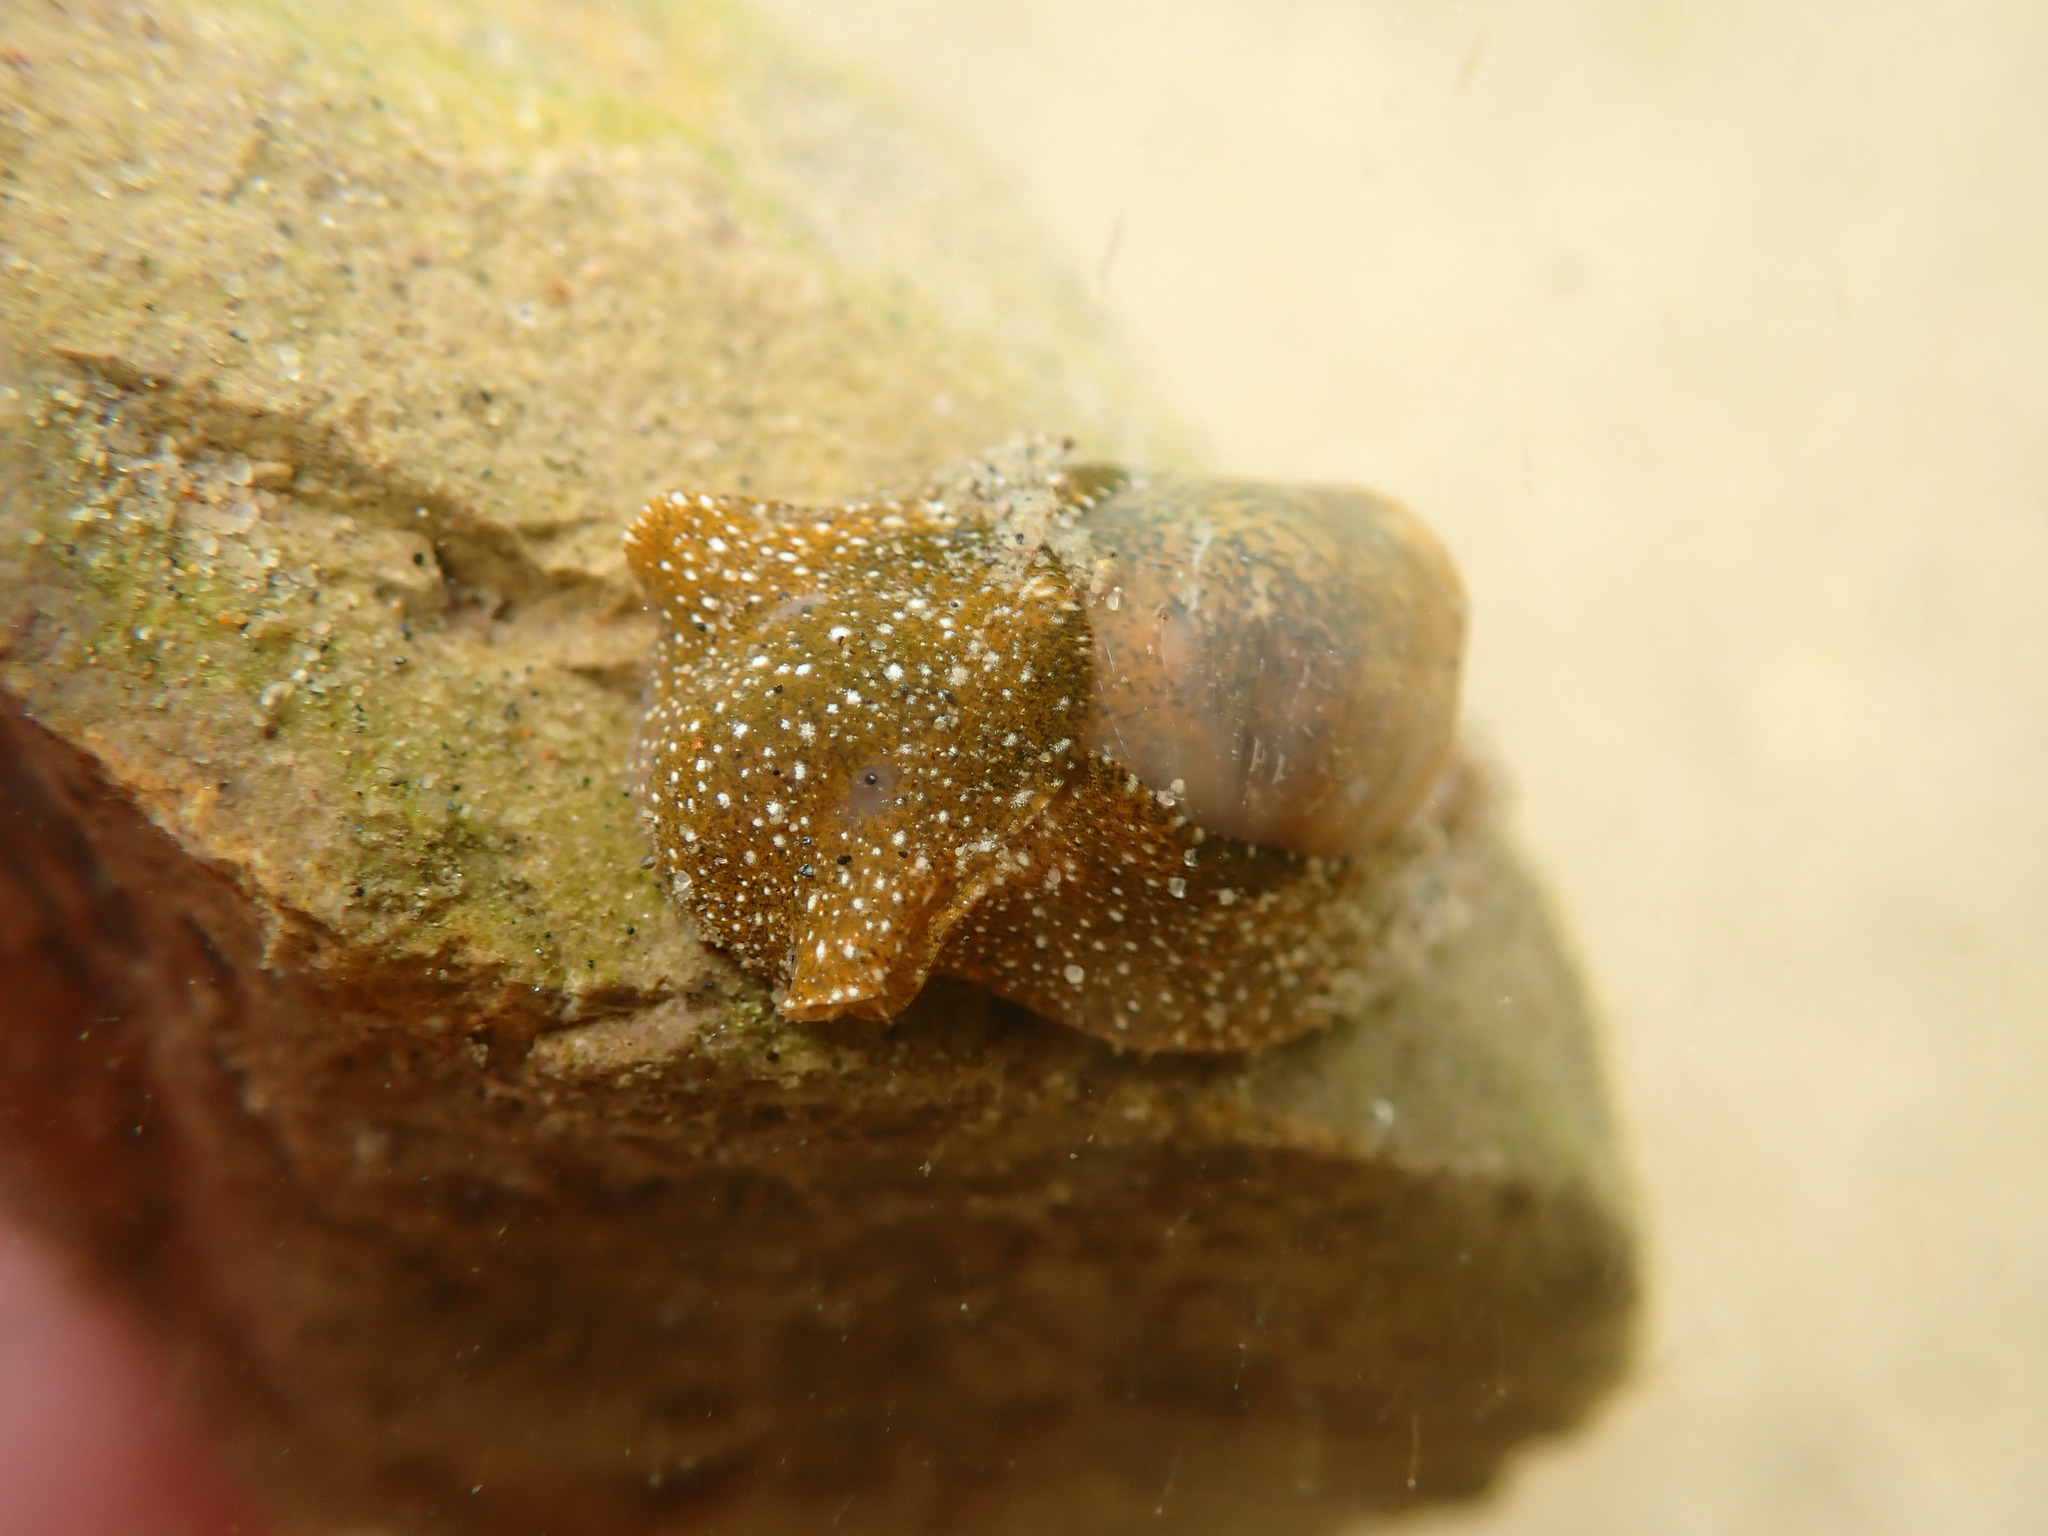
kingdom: Animalia
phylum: Mollusca
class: Gastropoda
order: Cephalaspidea
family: Haminoeidae
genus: Haminoea
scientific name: Haminoea virescens
